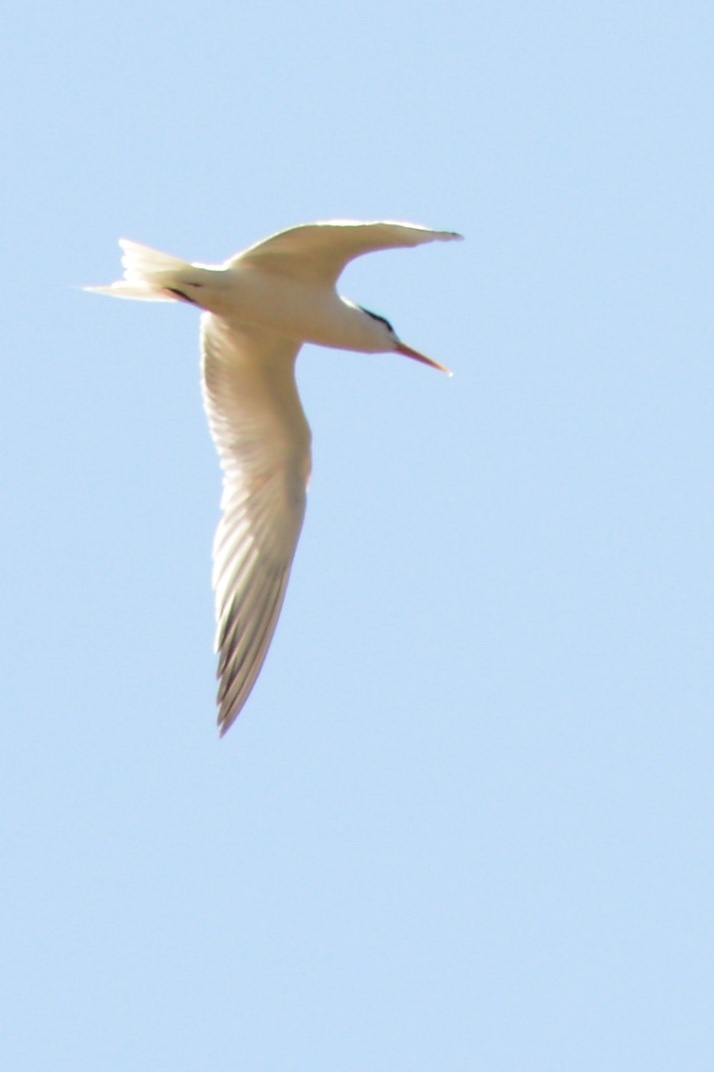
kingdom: Animalia
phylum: Chordata
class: Aves
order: Charadriiformes
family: Laridae
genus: Thalasseus
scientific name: Thalasseus elegans
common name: Elegant tern
